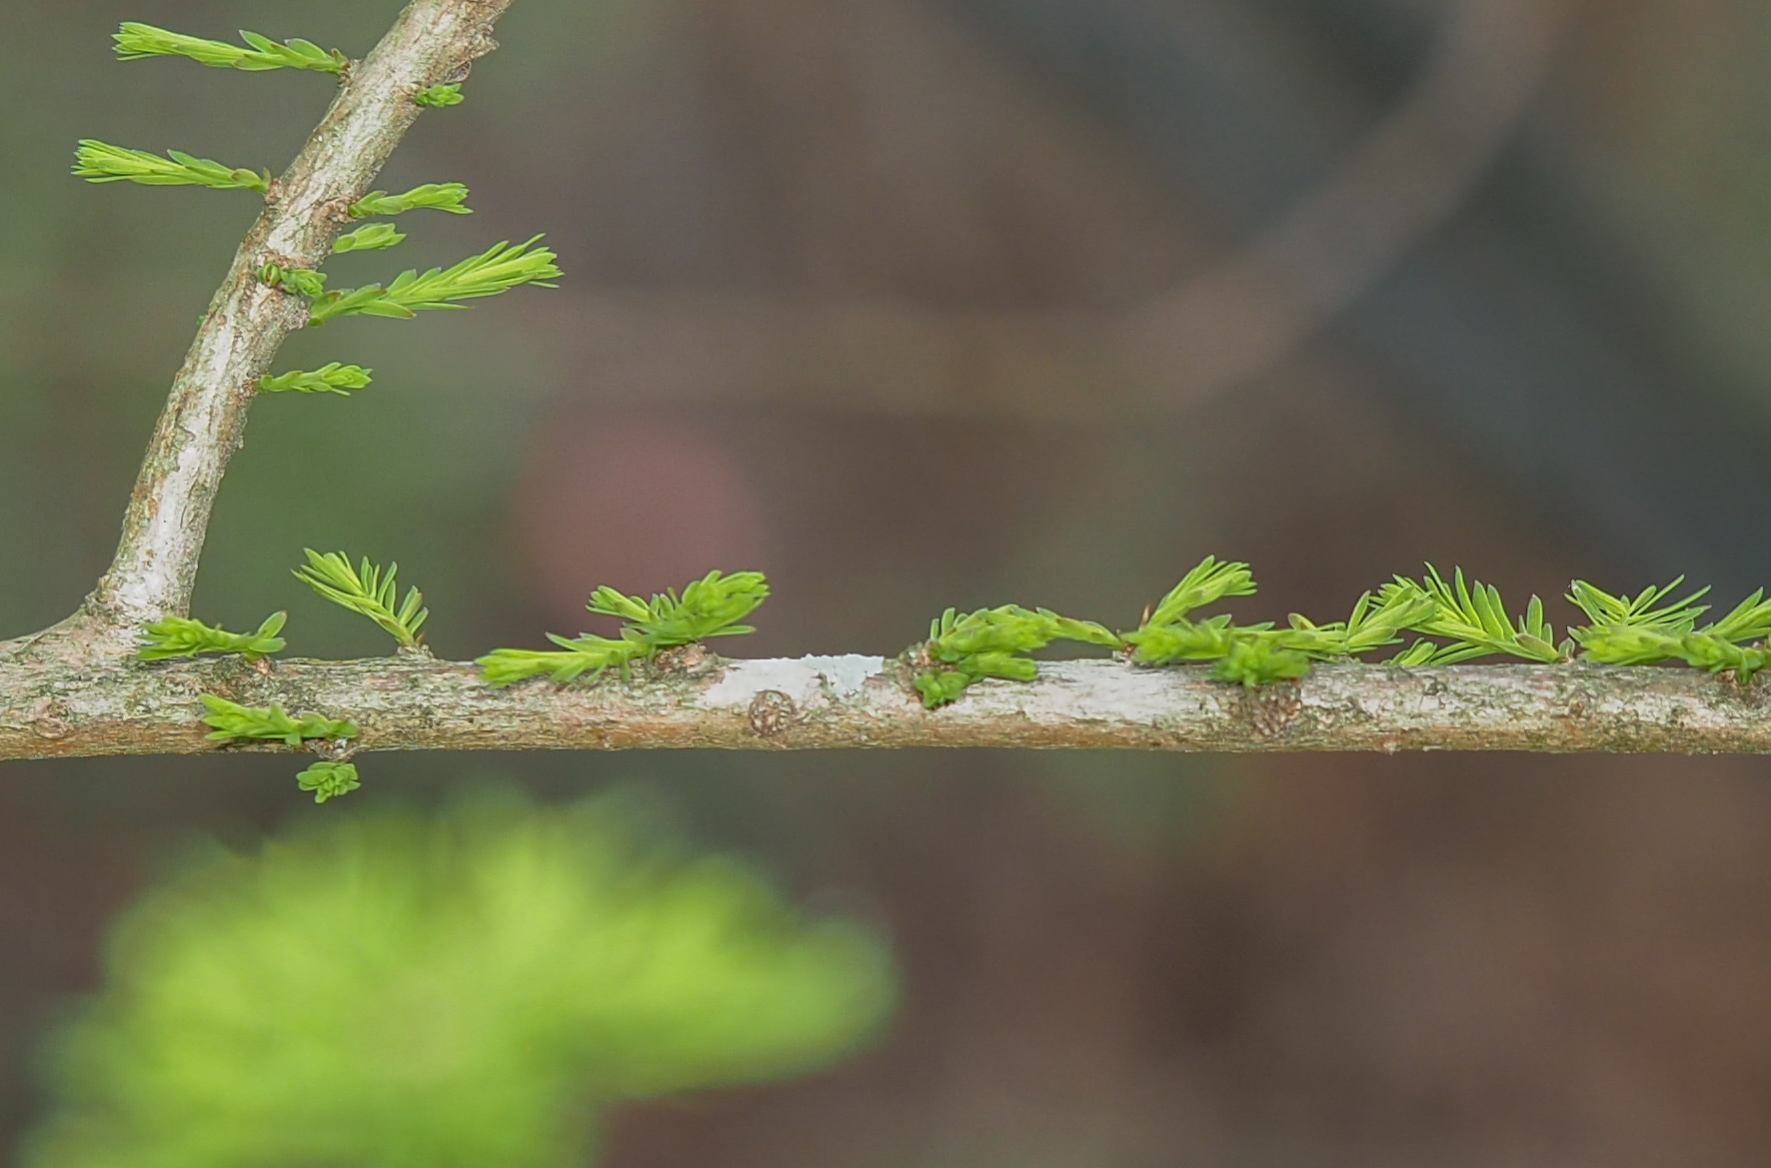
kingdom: Plantae
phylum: Tracheophyta
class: Pinopsida
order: Pinales
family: Cupressaceae
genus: Taxodium
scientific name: Taxodium distichum
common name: Bald cypress
